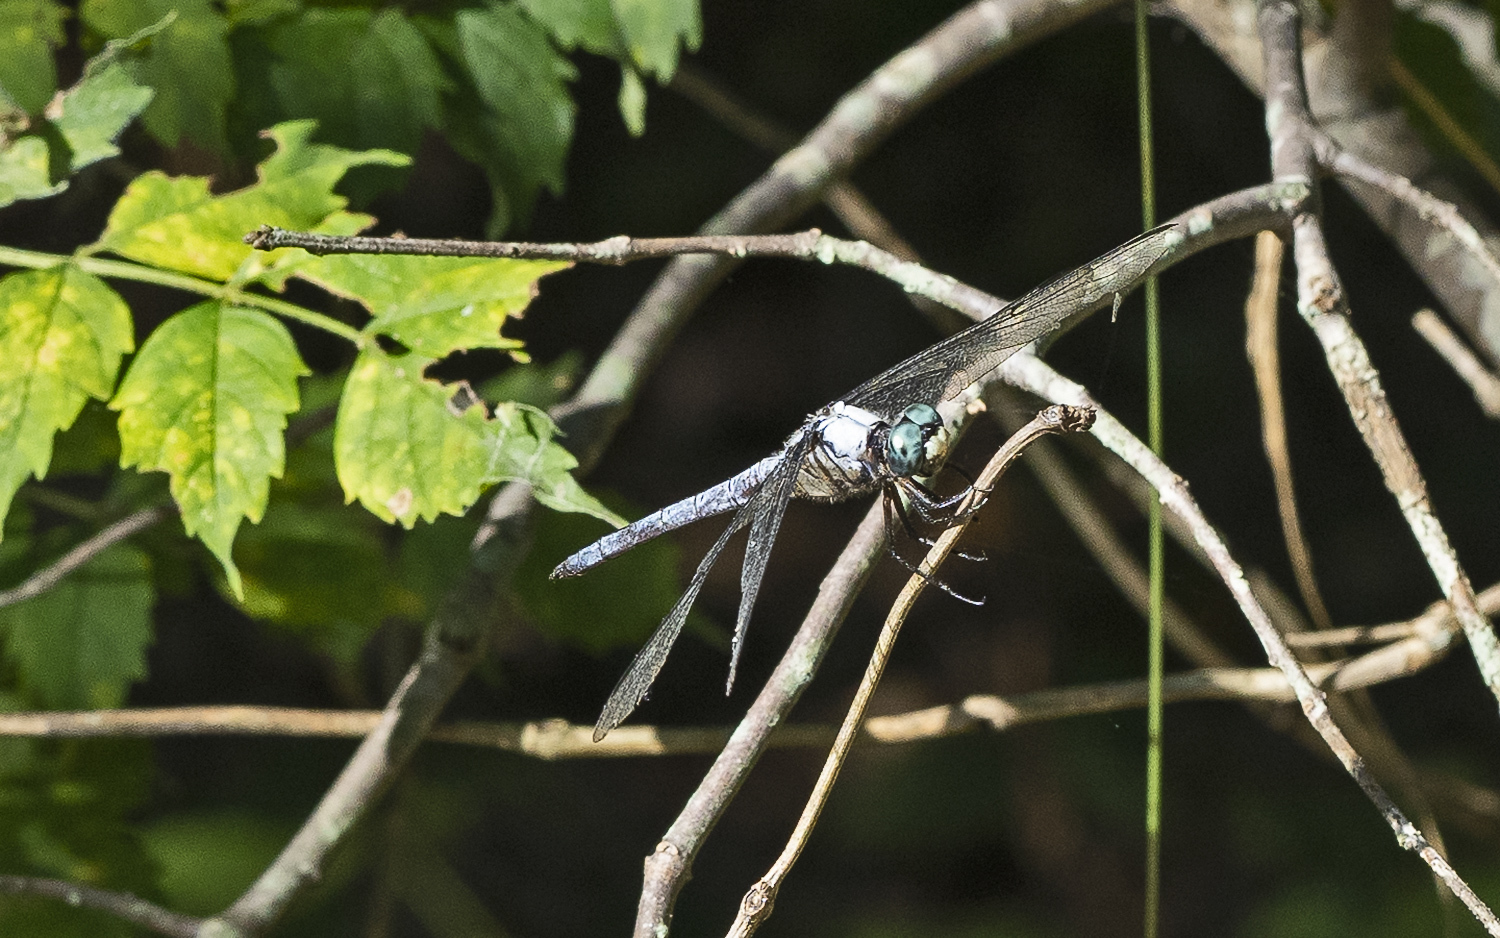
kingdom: Animalia
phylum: Arthropoda
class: Insecta
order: Odonata
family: Libellulidae
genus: Libellula
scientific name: Libellula vibrans
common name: Great blue skimmer
